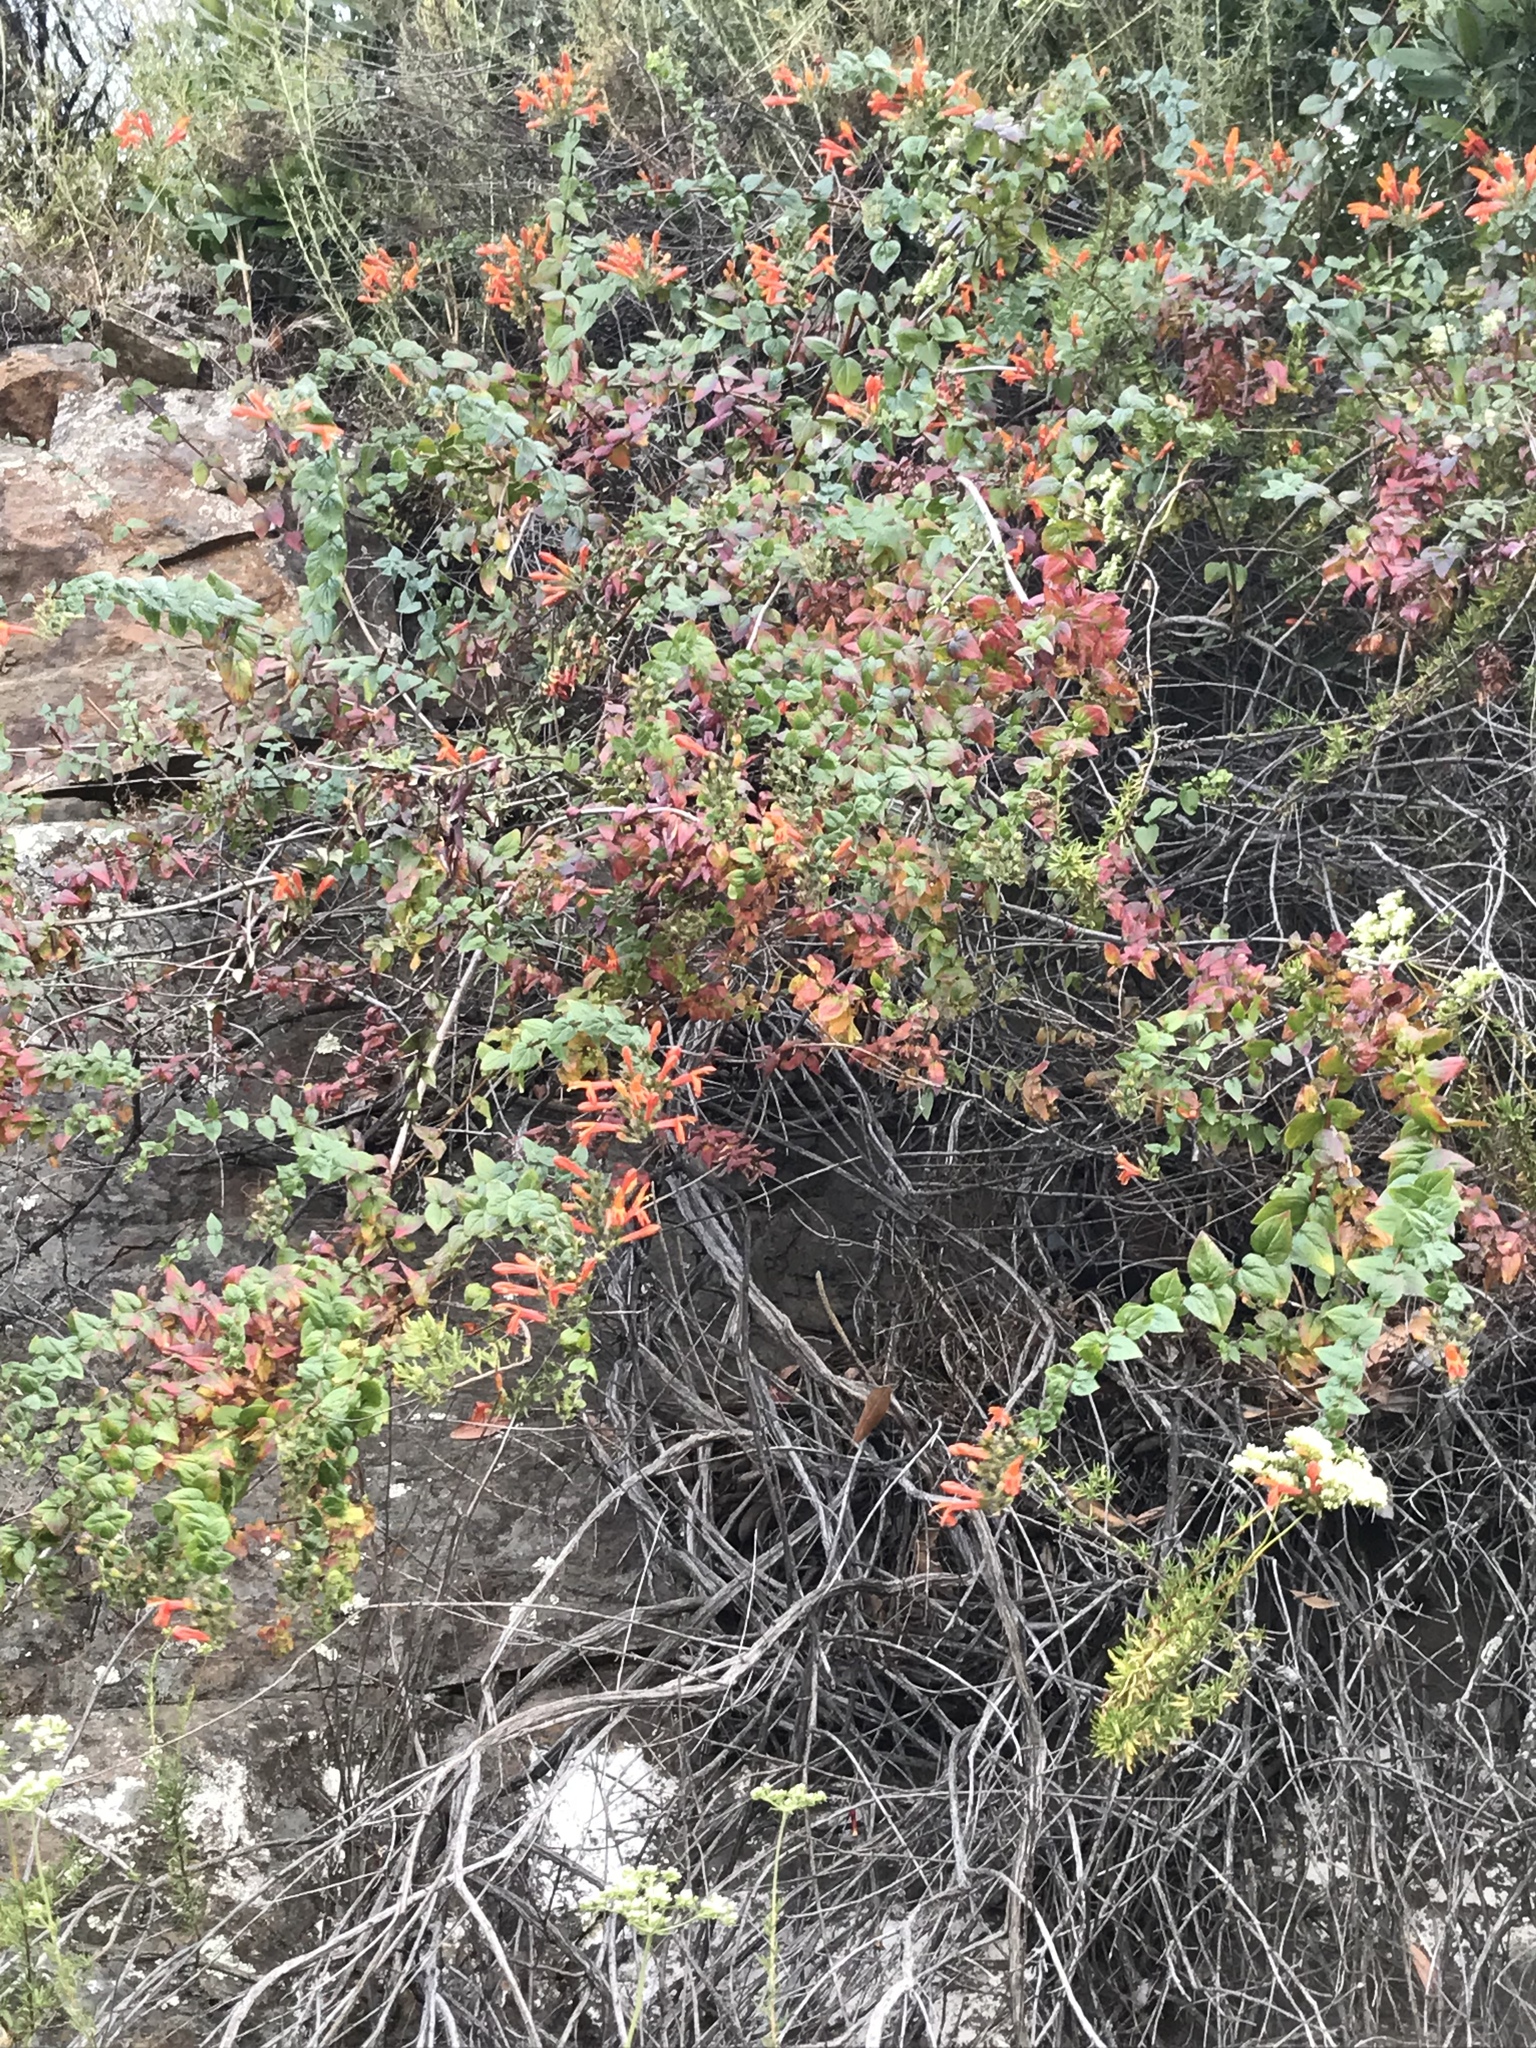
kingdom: Plantae
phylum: Tracheophyta
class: Magnoliopsida
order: Lamiales
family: Plantaginaceae
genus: Keckiella
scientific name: Keckiella cordifolia
